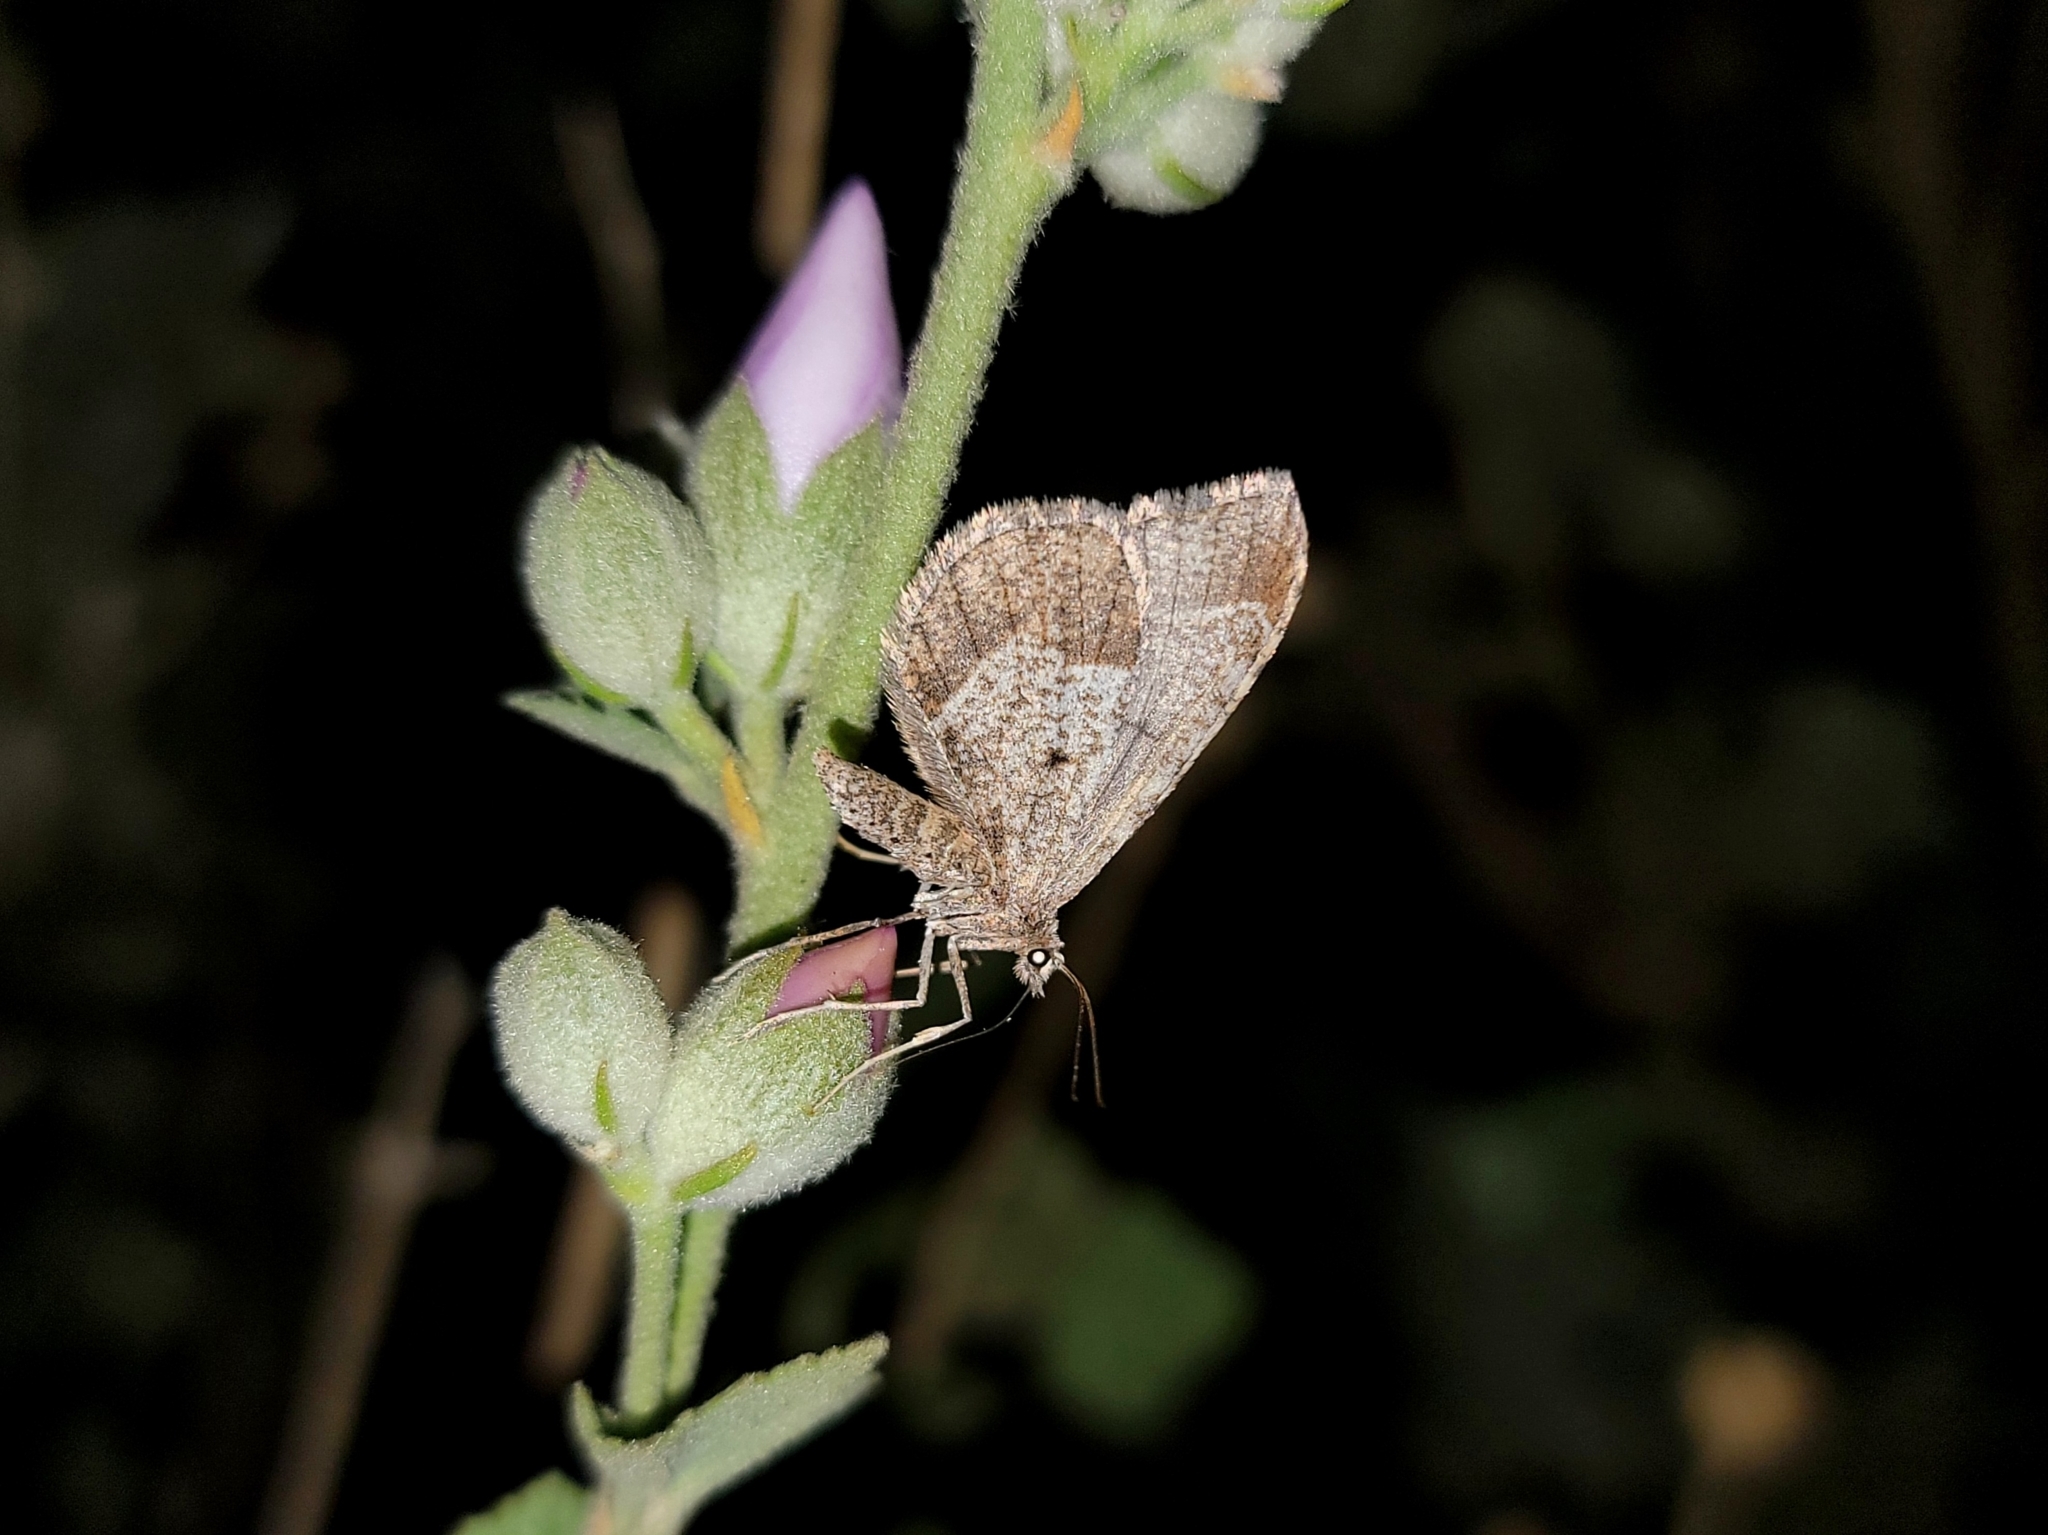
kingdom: Animalia
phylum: Arthropoda
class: Insecta
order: Lepidoptera
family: Geometridae
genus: Stamnodes
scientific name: Stamnodes affiliata
